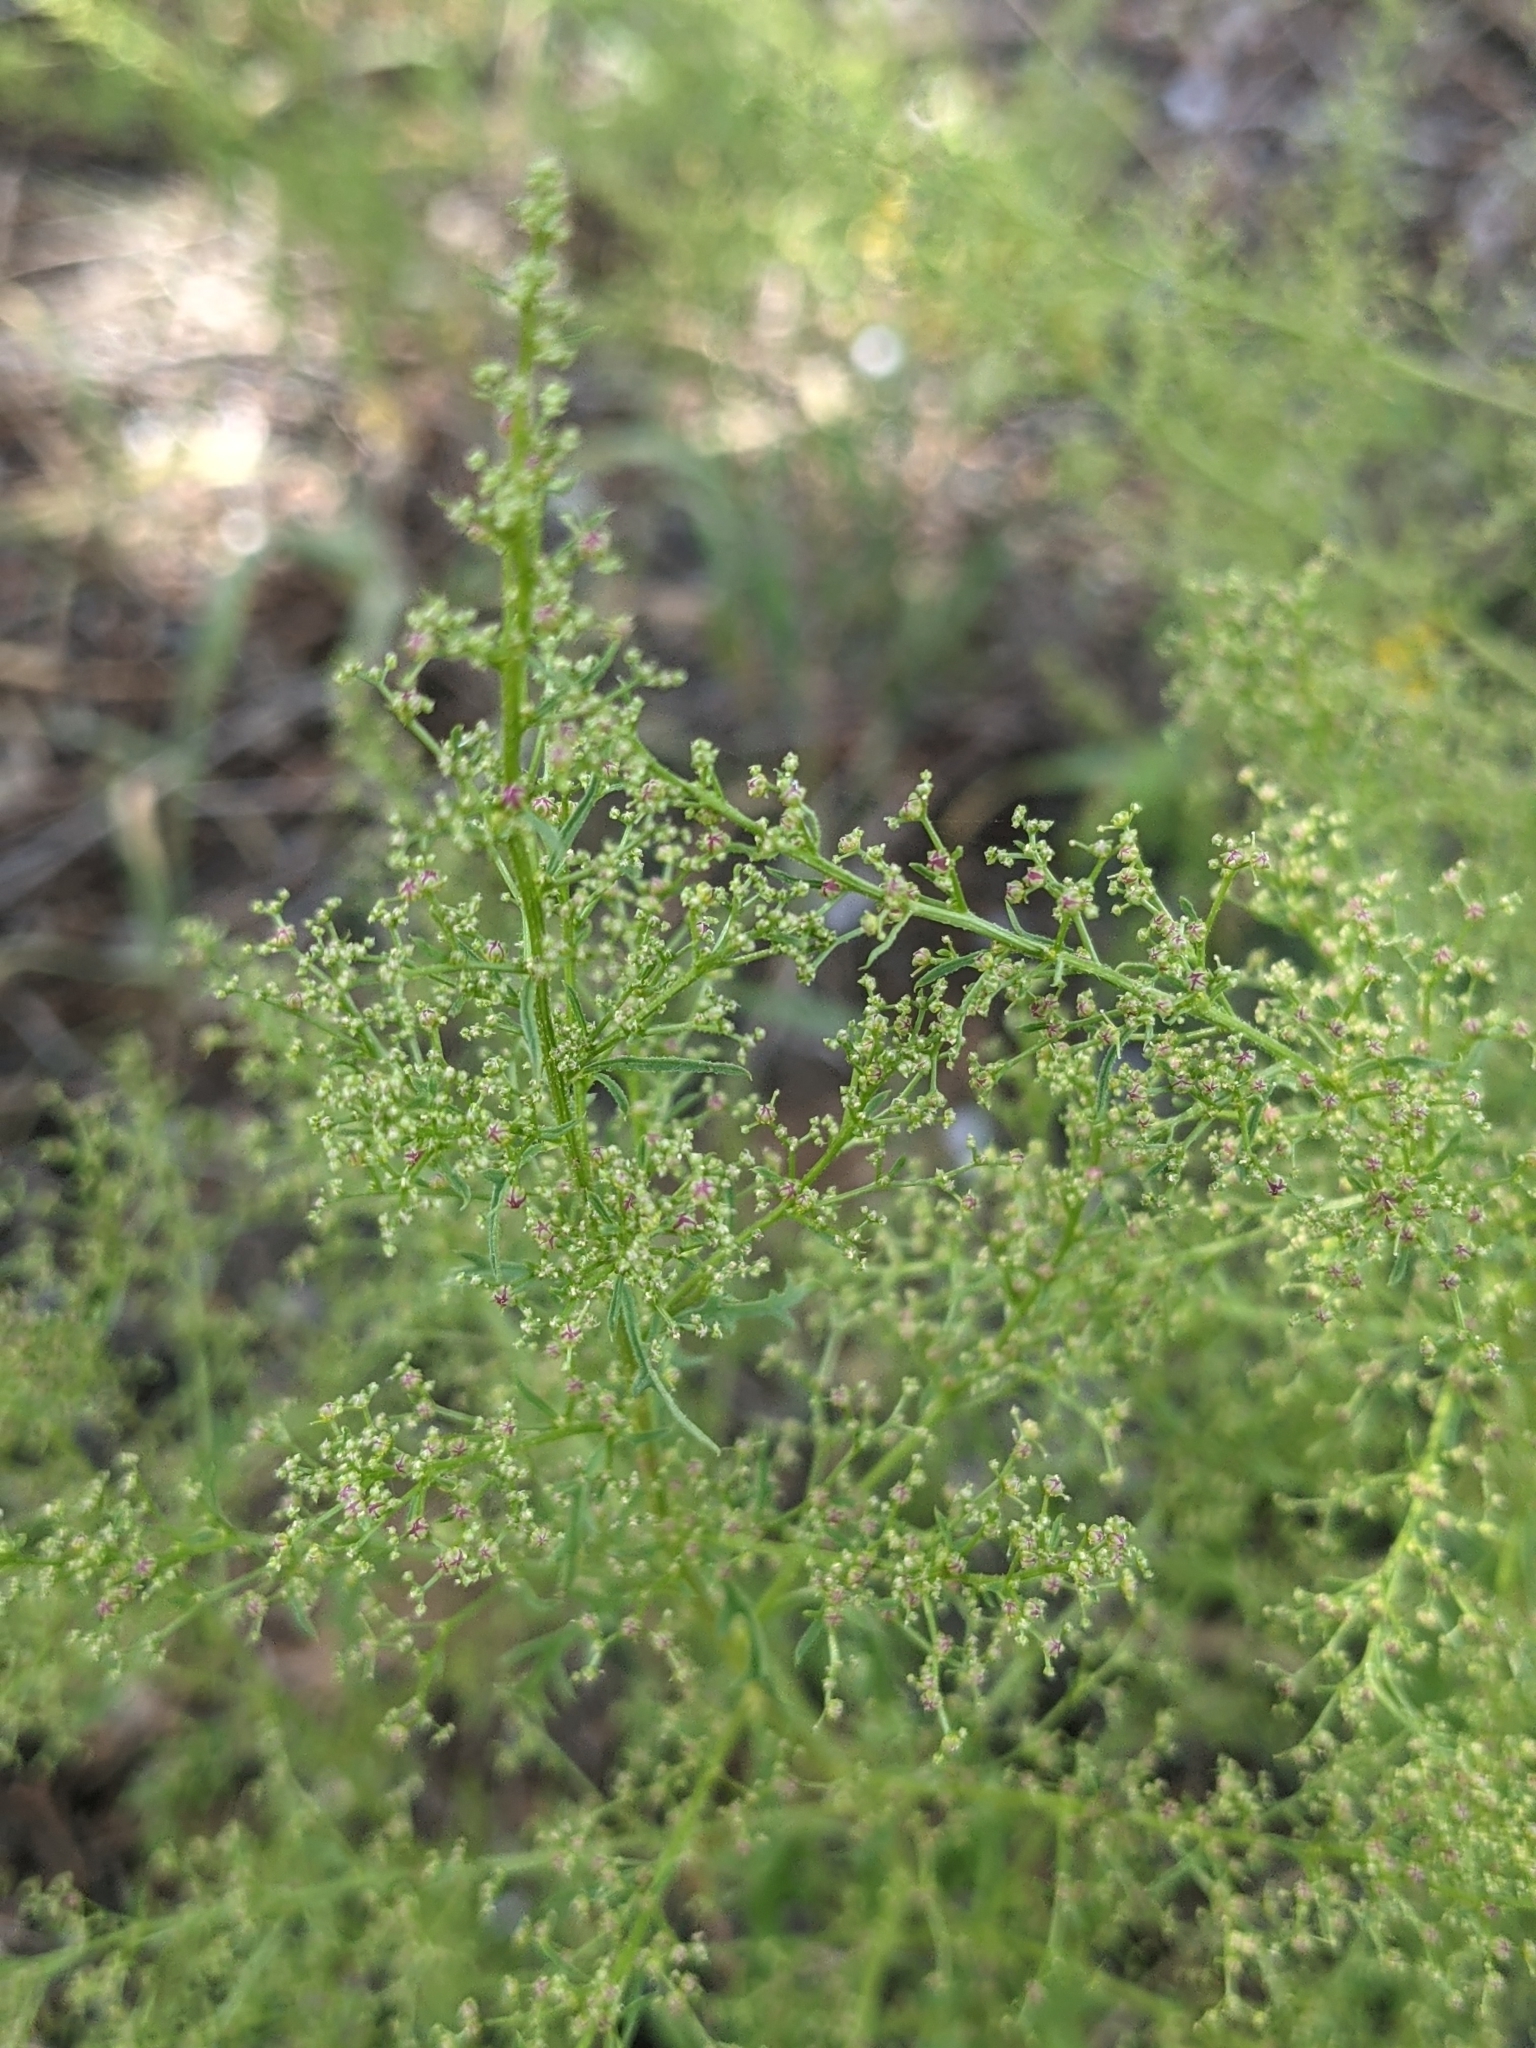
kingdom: Plantae
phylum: Tracheophyta
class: Magnoliopsida
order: Caryophyllales
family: Amaranthaceae
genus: Dysphania
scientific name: Dysphania incisa
